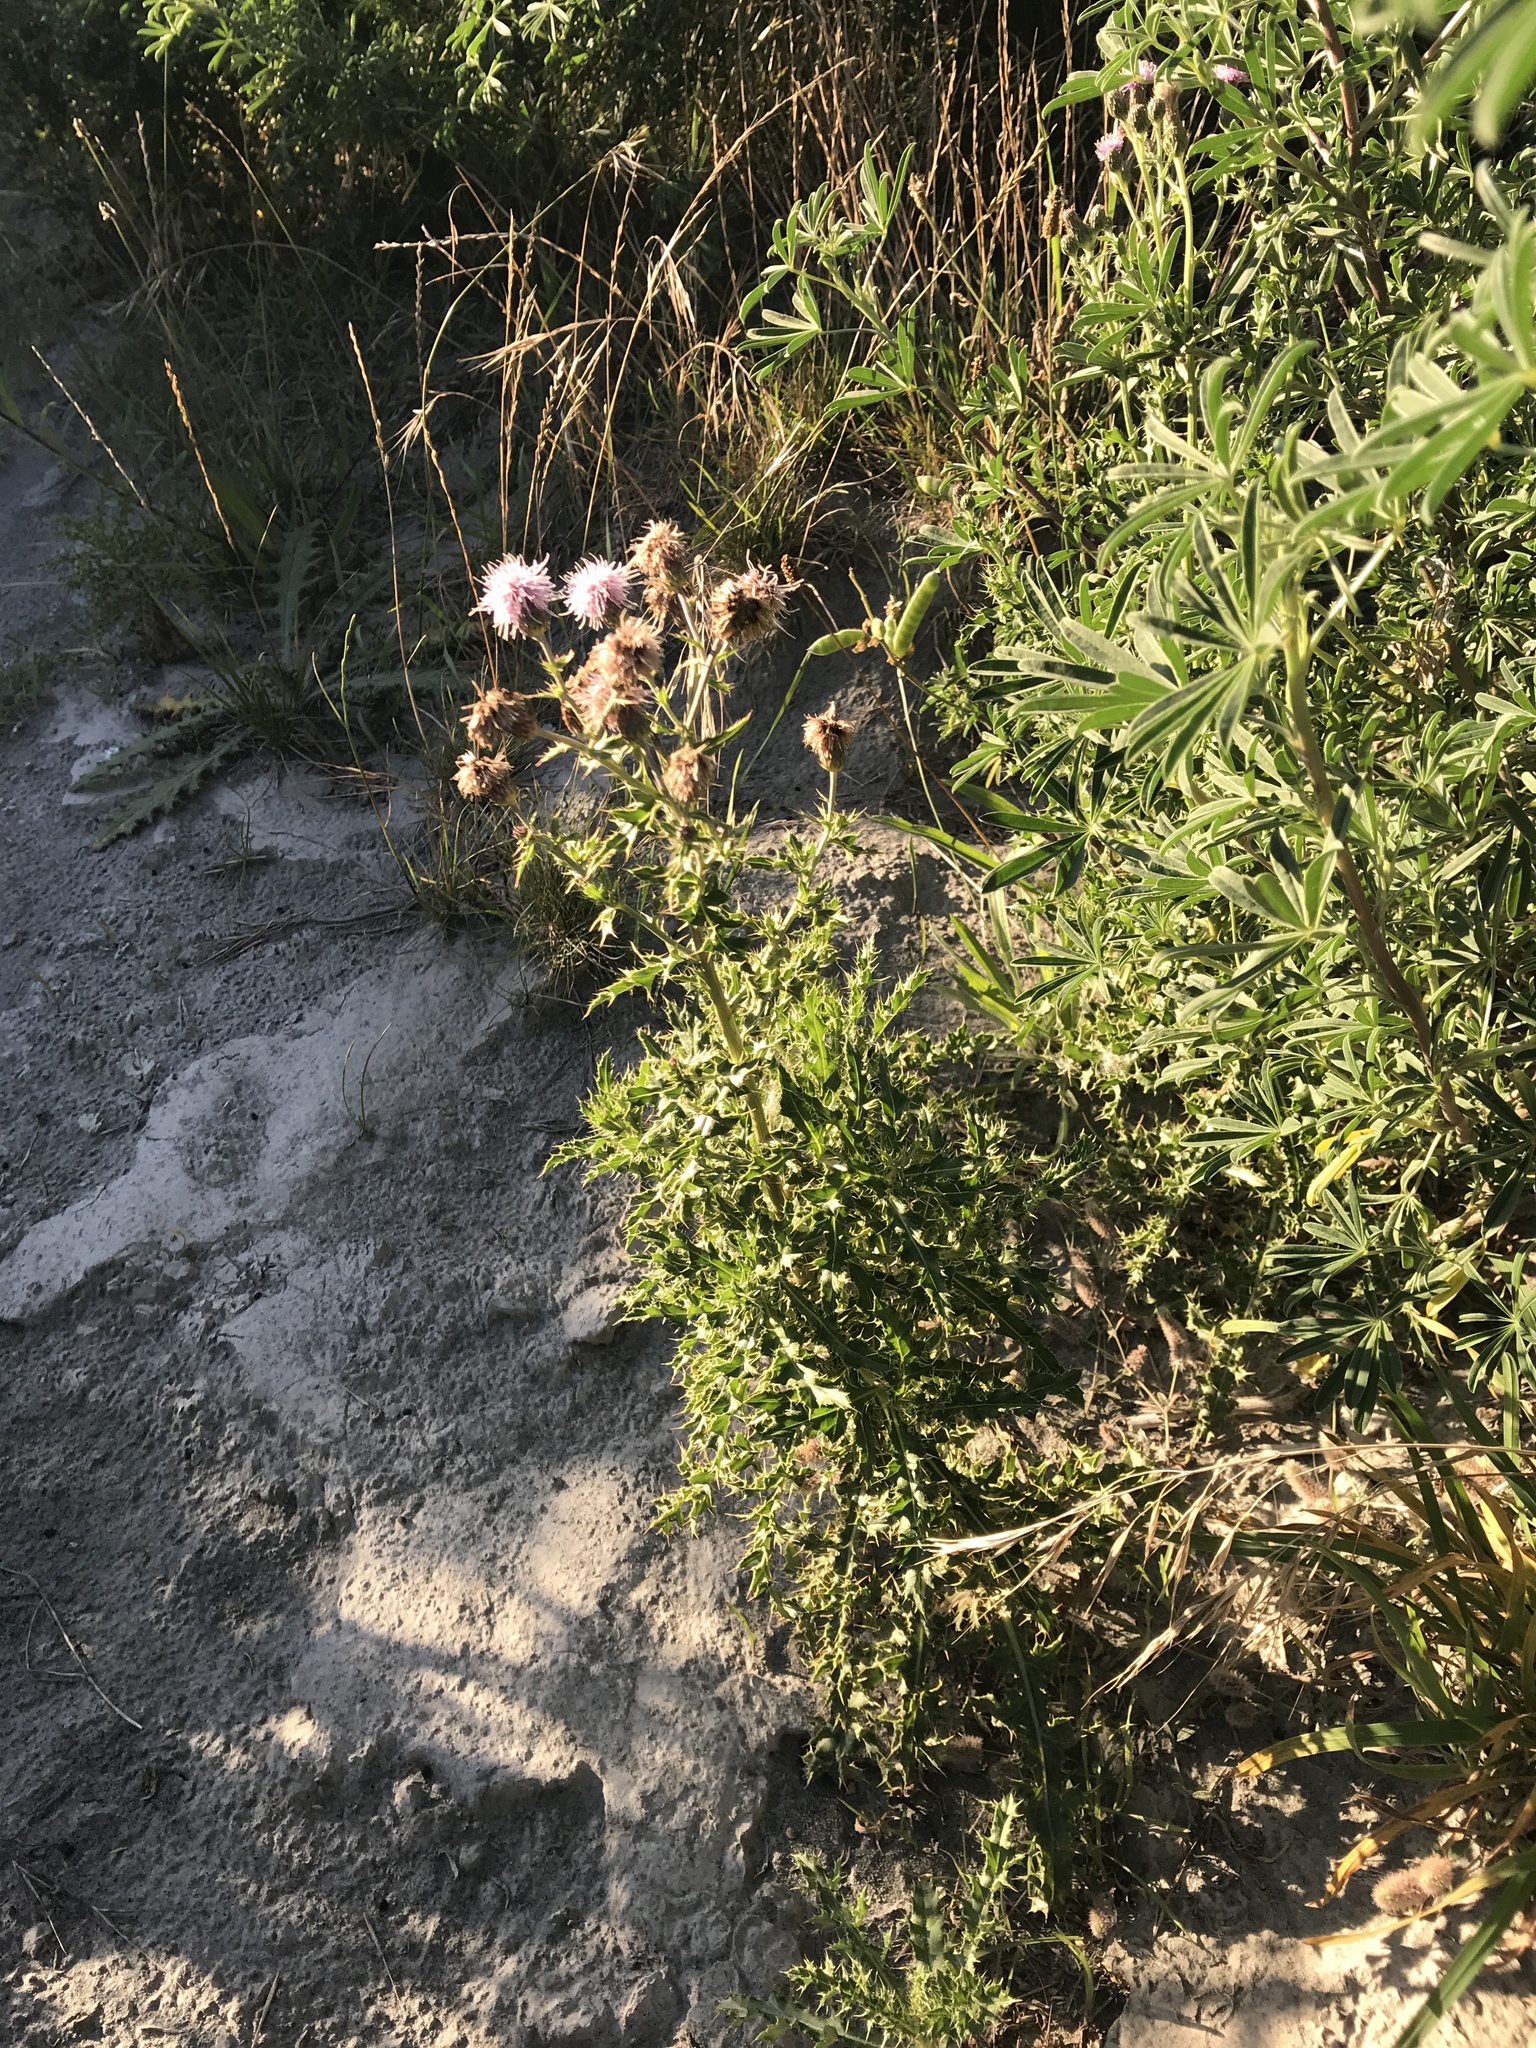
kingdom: Plantae
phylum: Tracheophyta
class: Magnoliopsida
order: Asterales
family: Asteraceae
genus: Cirsium
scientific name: Cirsium arvense
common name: Creeping thistle
